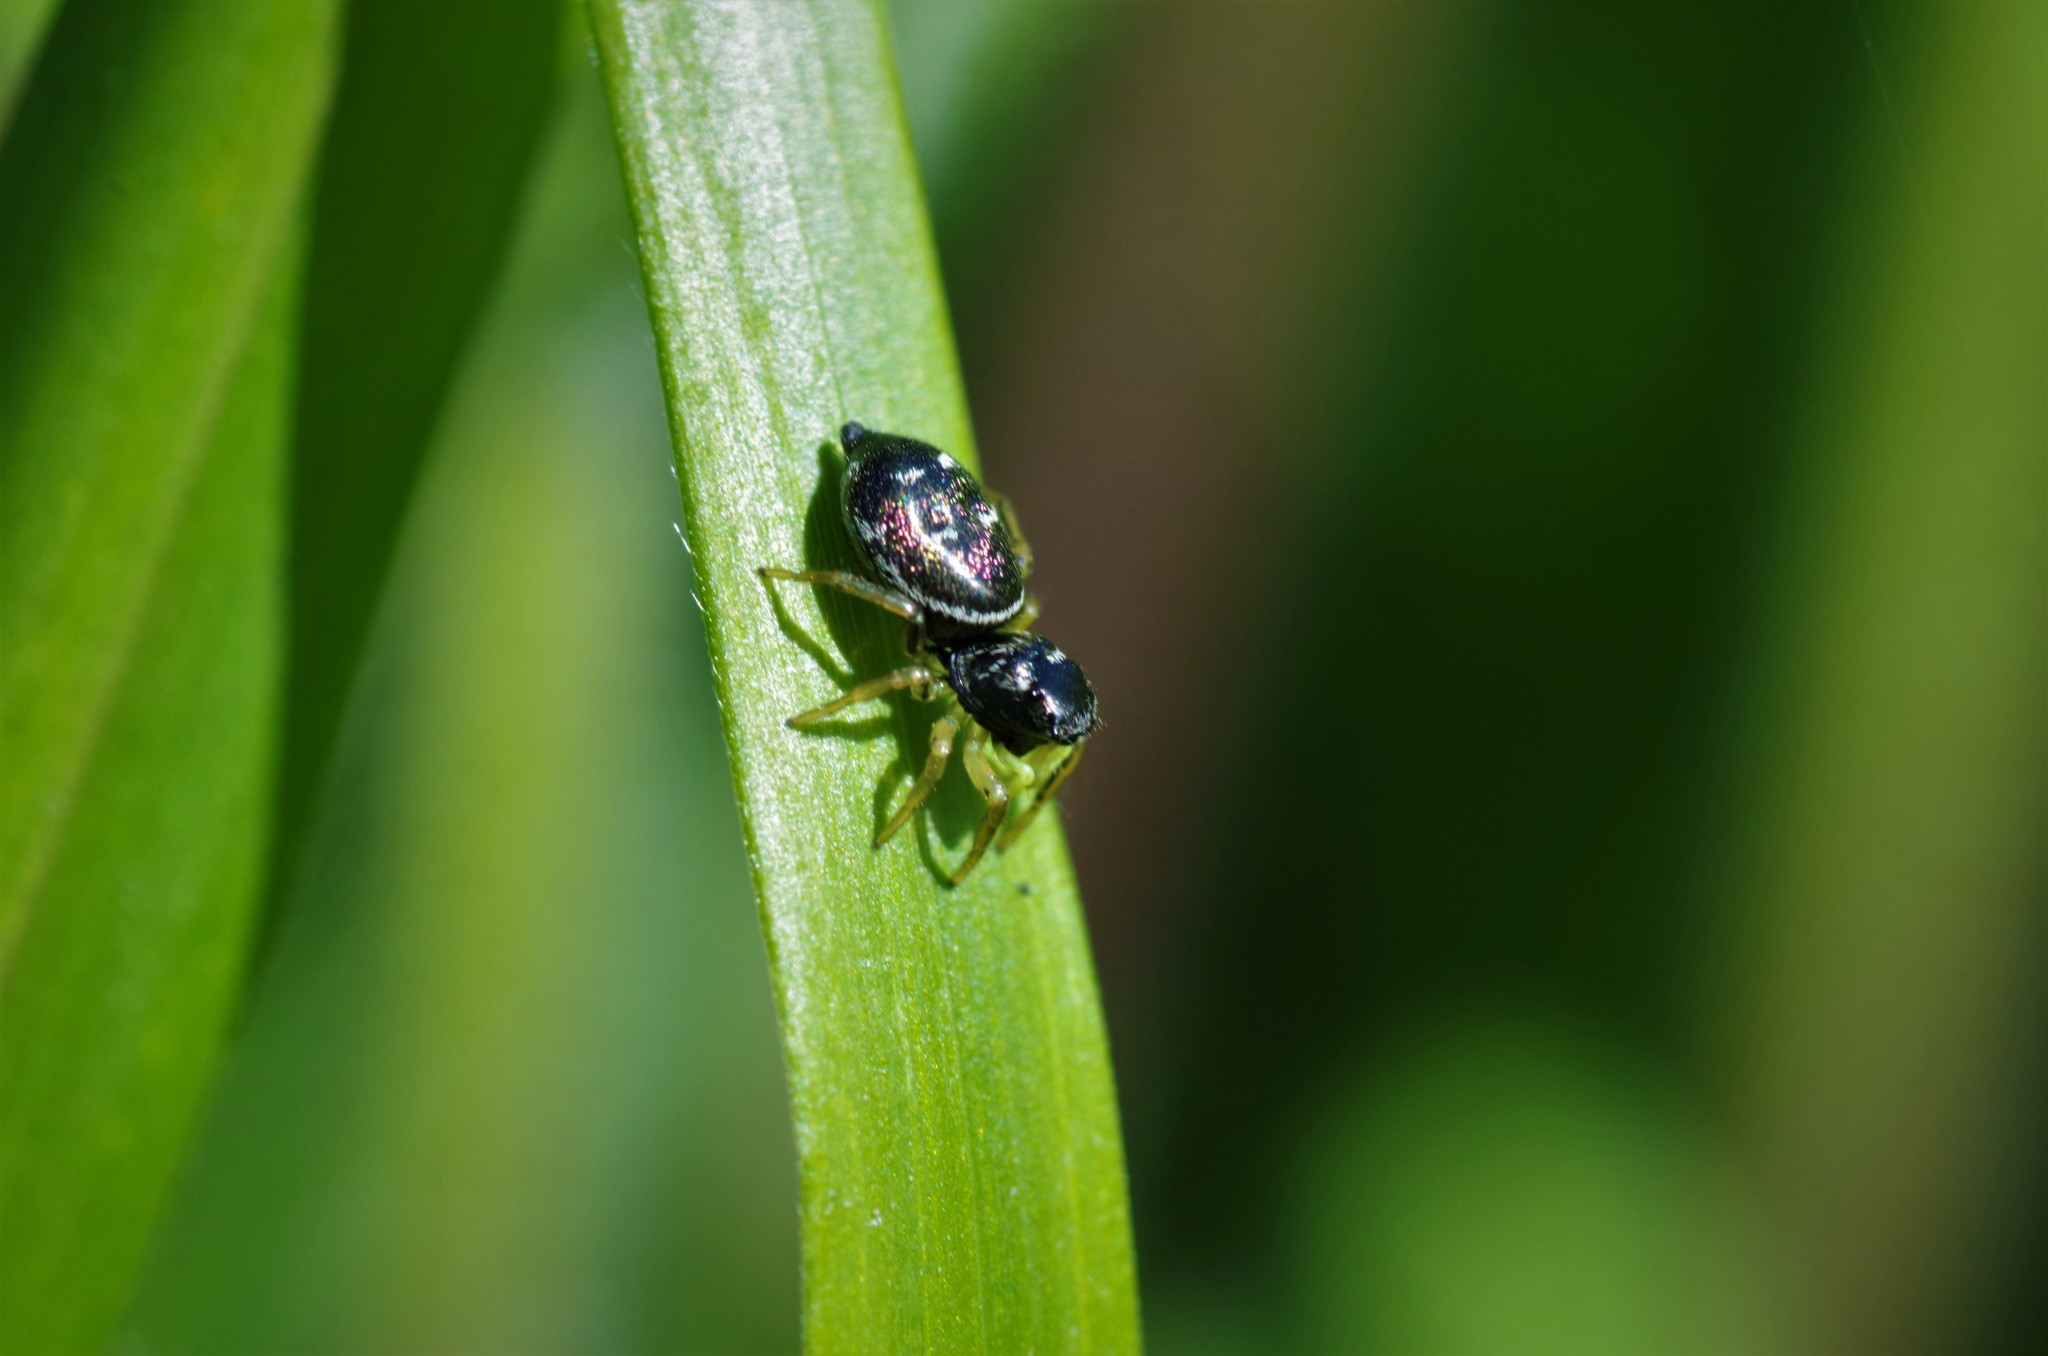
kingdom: Animalia
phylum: Arthropoda
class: Arachnida
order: Araneae
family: Salticidae
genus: Heliophanus
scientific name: Heliophanus cupreus
